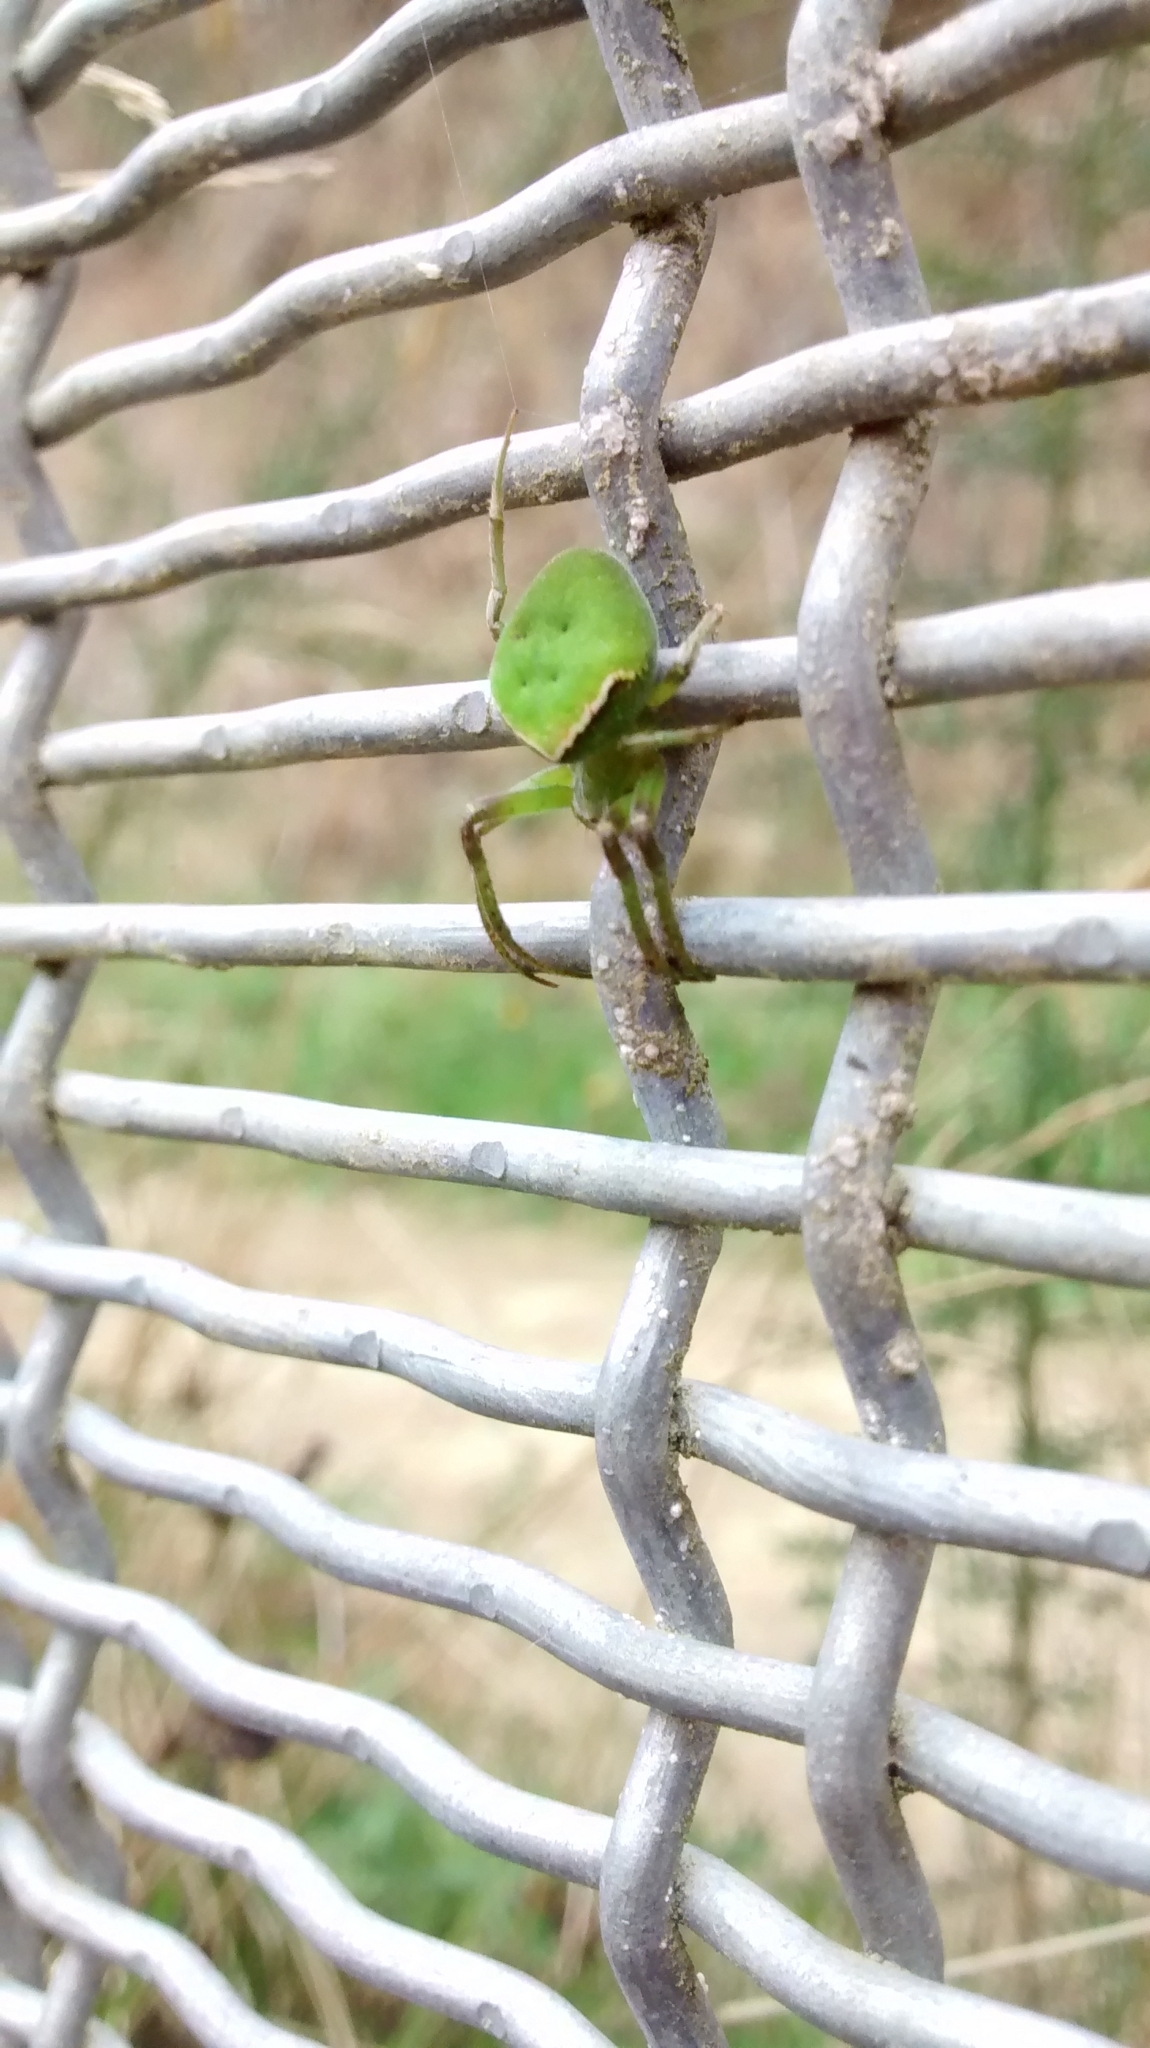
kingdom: Animalia
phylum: Arthropoda
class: Arachnida
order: Araneae
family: Araneidae
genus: Colaranea
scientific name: Colaranea viriditas
